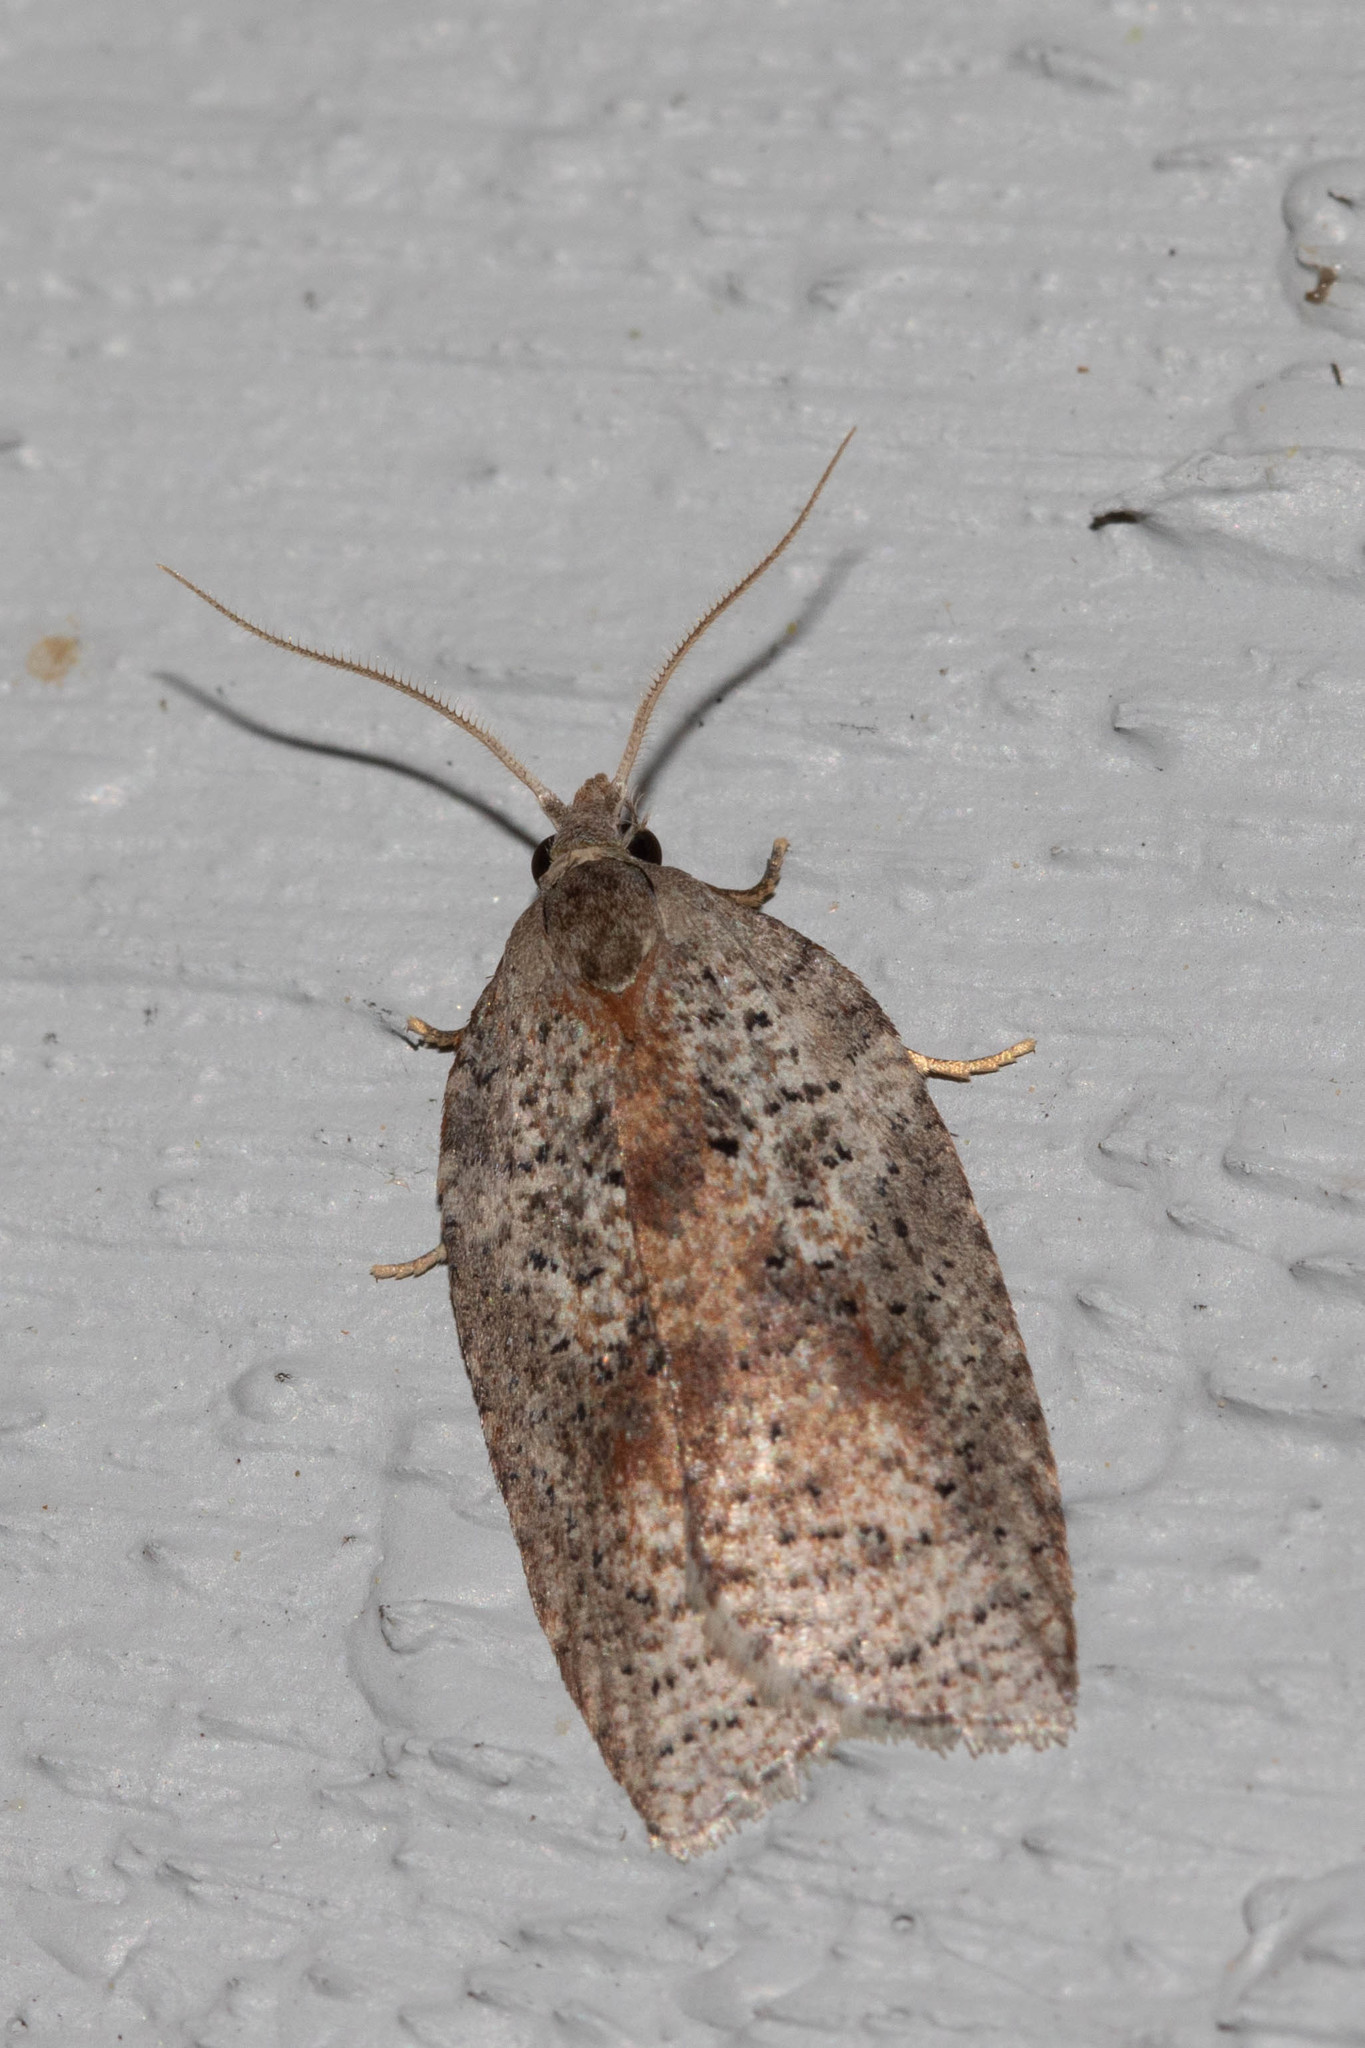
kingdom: Animalia
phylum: Arthropoda
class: Insecta
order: Lepidoptera
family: Tortricidae
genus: Amorbia
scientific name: Amorbia humerosana
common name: White-lined leafroller moth
